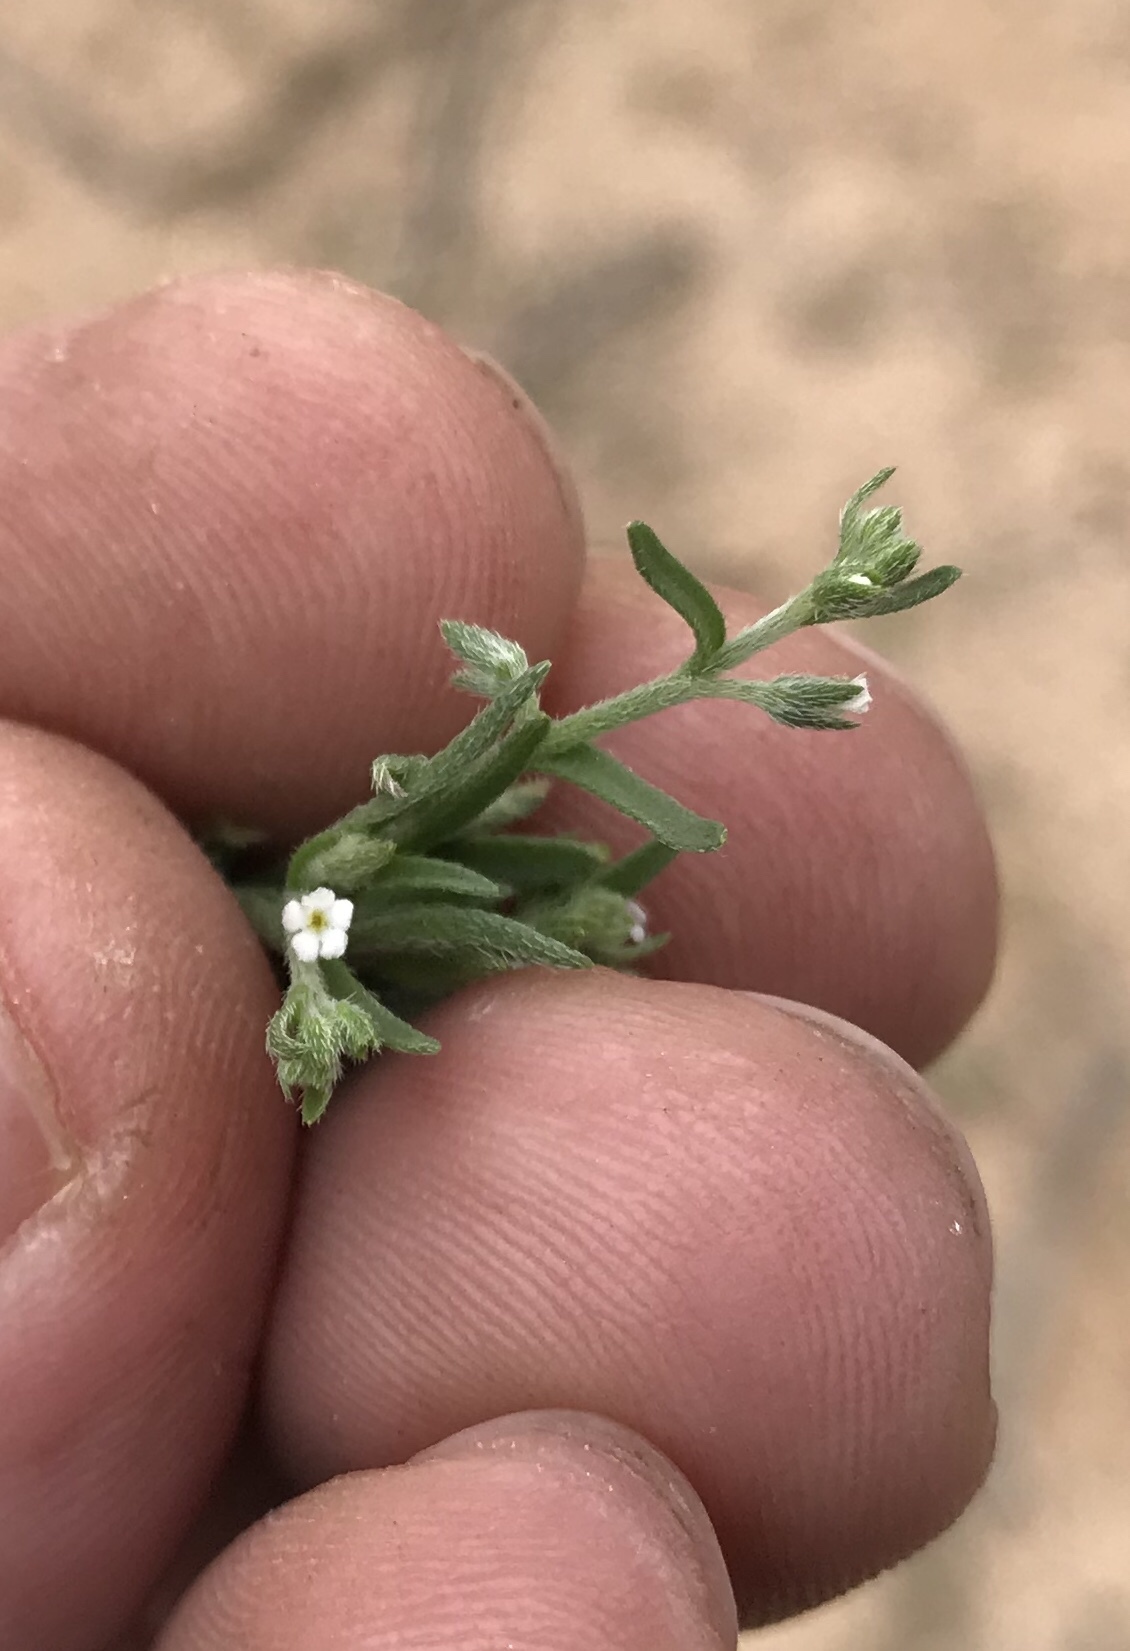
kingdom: Plantae
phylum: Tracheophyta
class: Magnoliopsida
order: Boraginales
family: Boraginaceae
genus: Pectocarya
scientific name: Pectocarya recurvata
